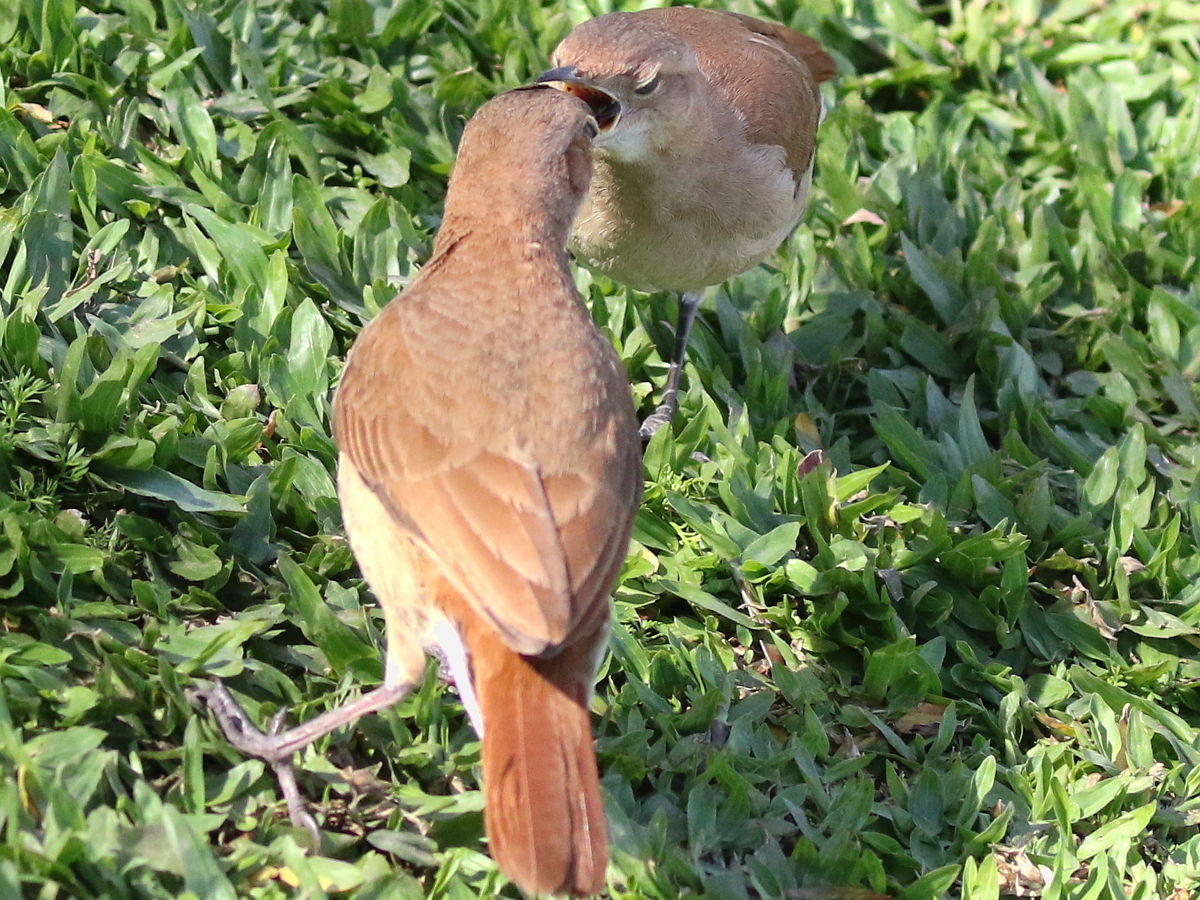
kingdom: Animalia
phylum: Chordata
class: Aves
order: Passeriformes
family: Furnariidae
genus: Furnarius
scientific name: Furnarius rufus
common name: Rufous hornero
